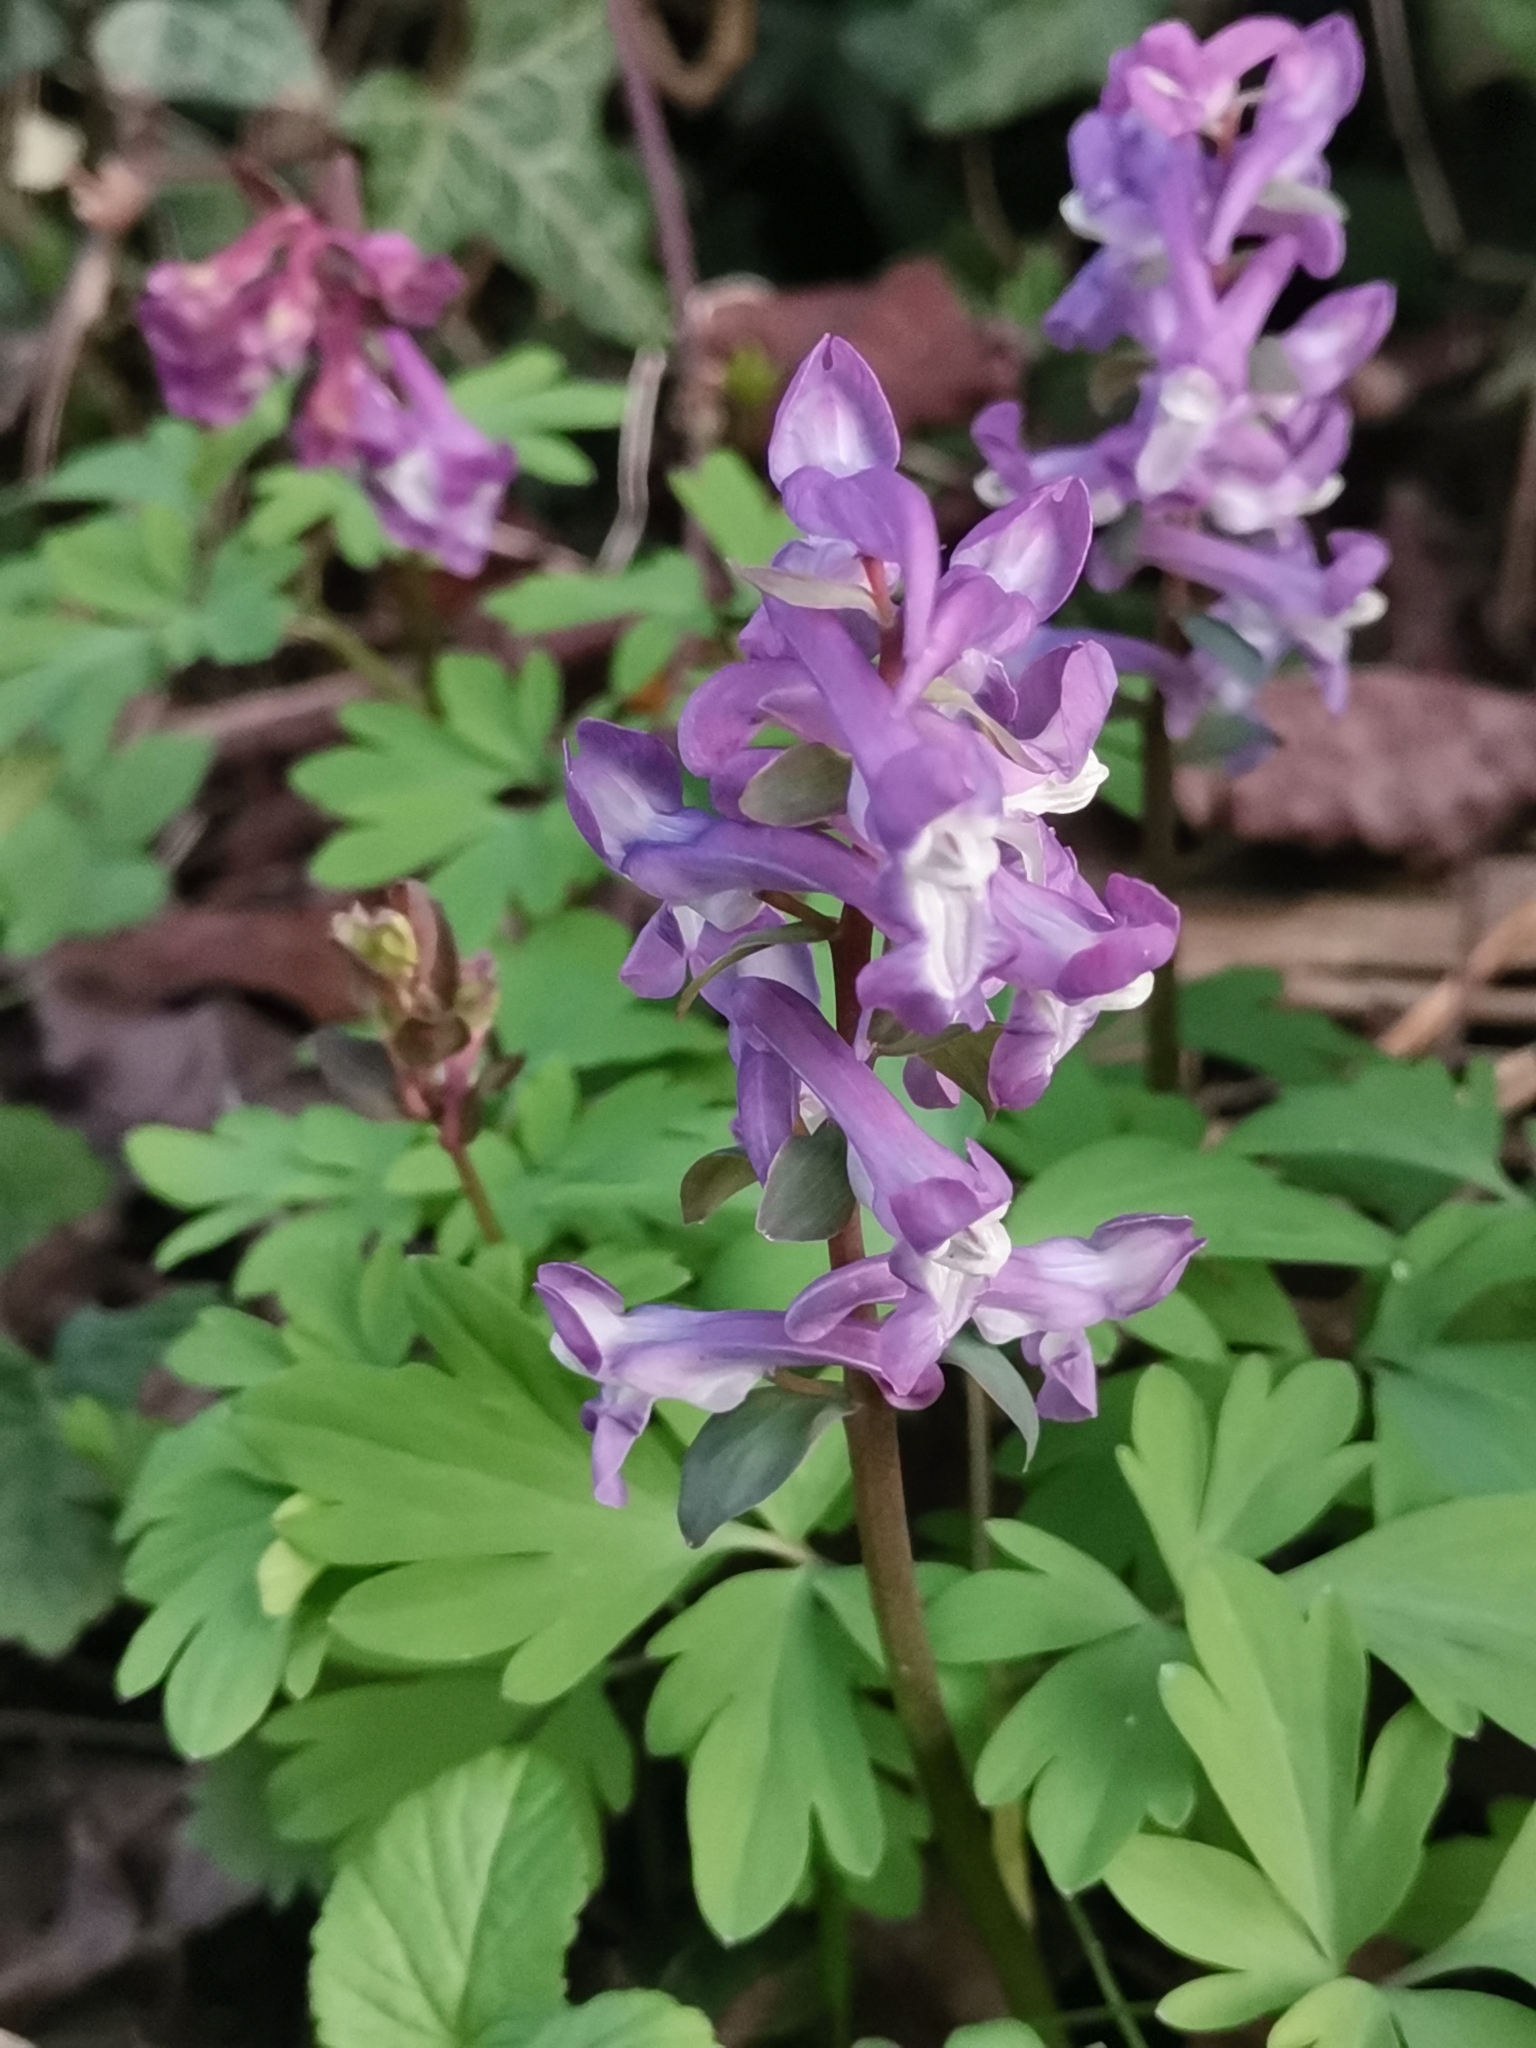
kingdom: Plantae
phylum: Tracheophyta
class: Magnoliopsida
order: Ranunculales
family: Papaveraceae
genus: Corydalis
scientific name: Corydalis cava
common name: Hollowroot
